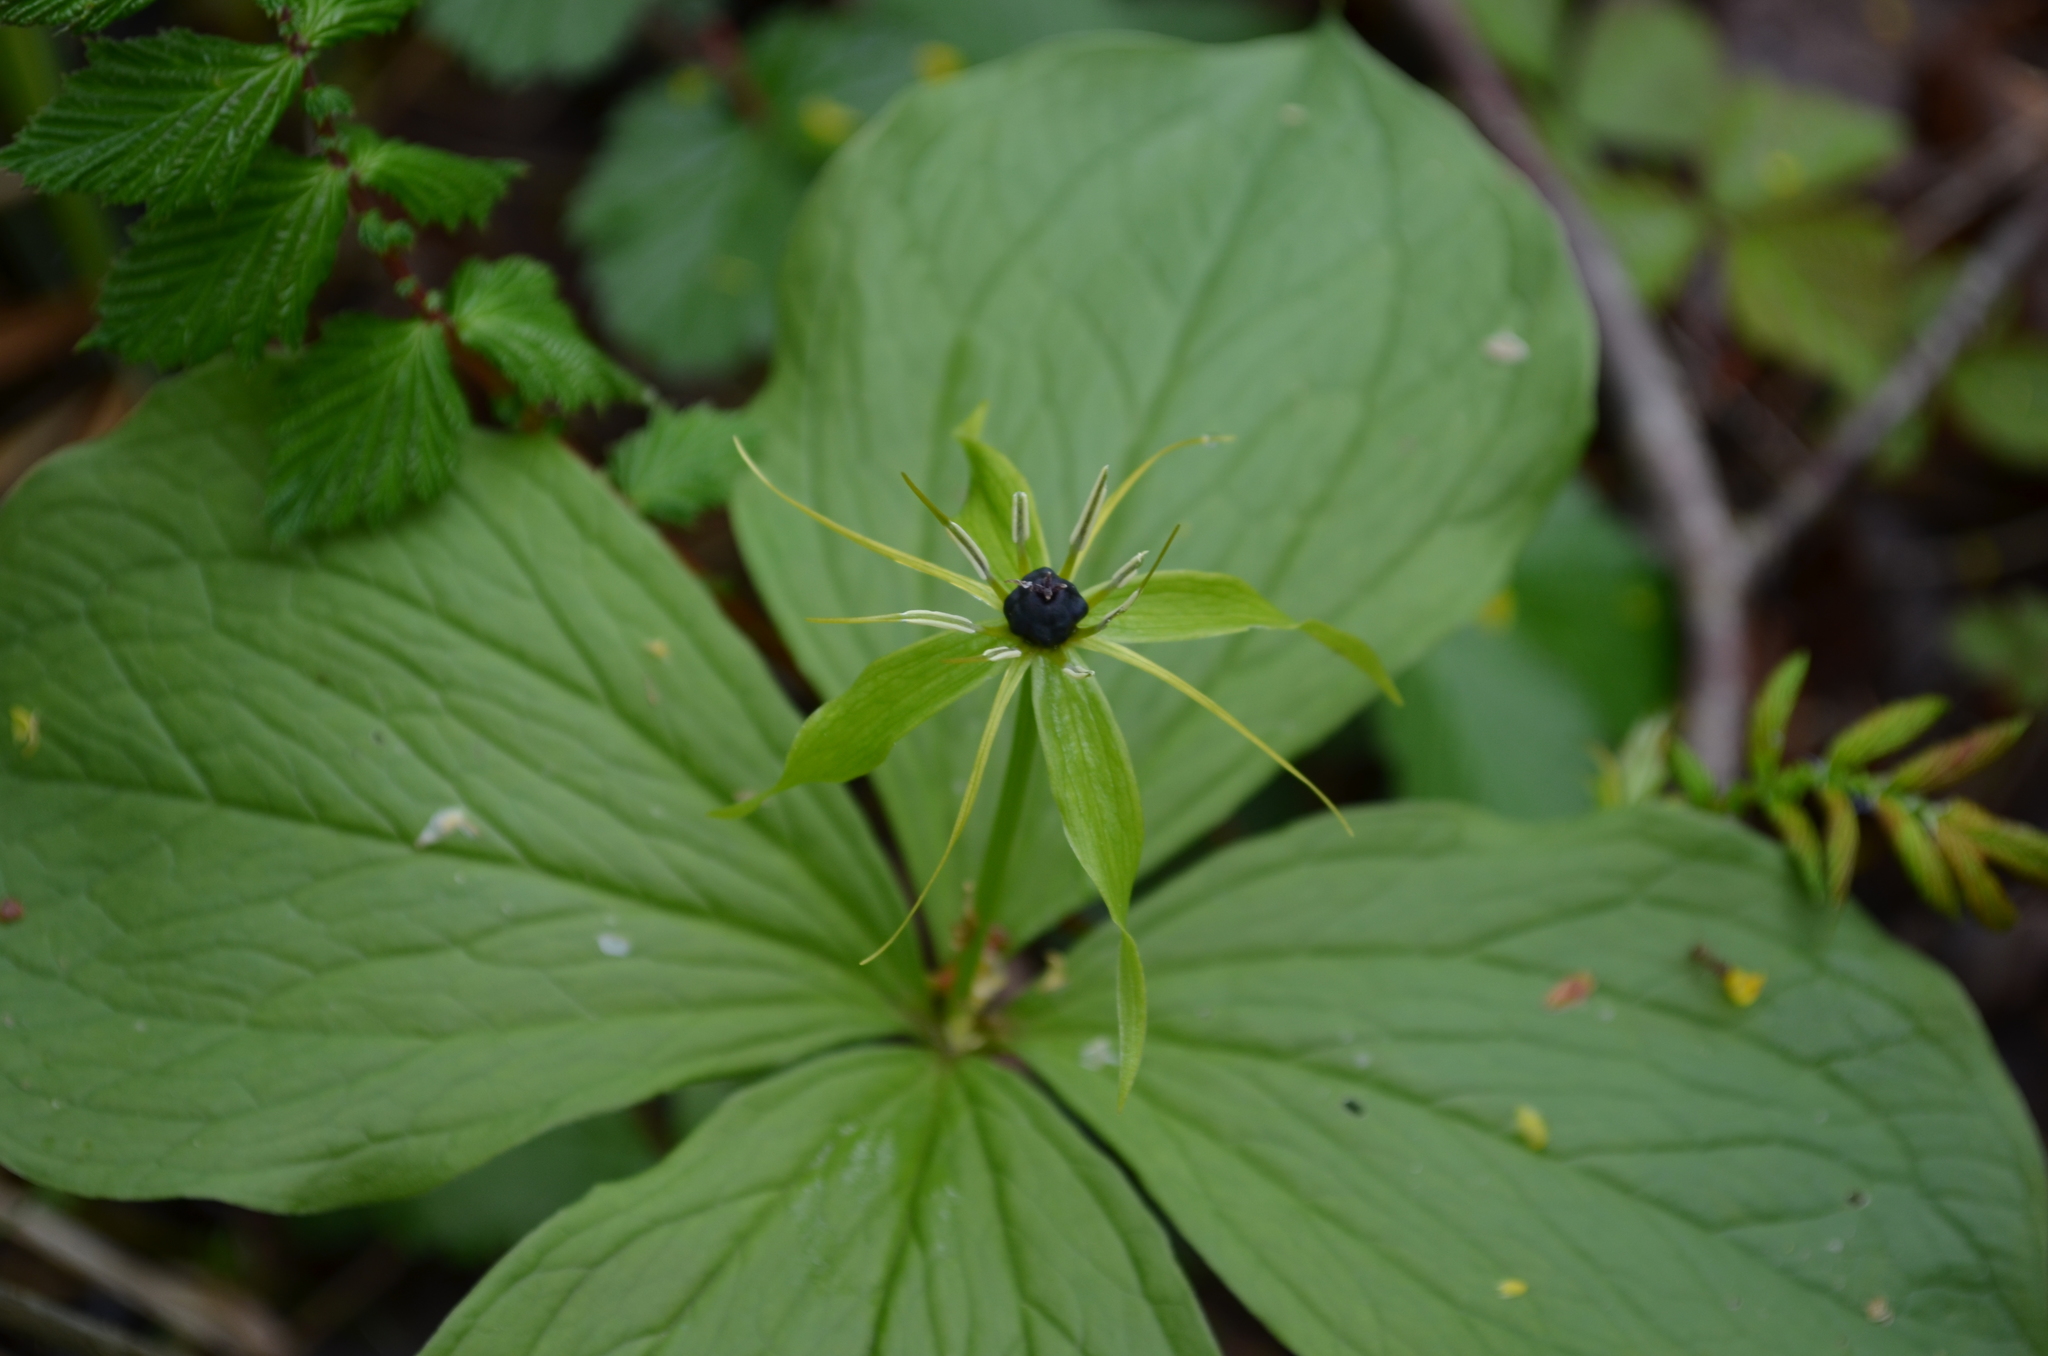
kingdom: Plantae
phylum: Tracheophyta
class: Liliopsida
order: Liliales
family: Melanthiaceae
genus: Paris
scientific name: Paris quadrifolia
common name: Herb-paris
